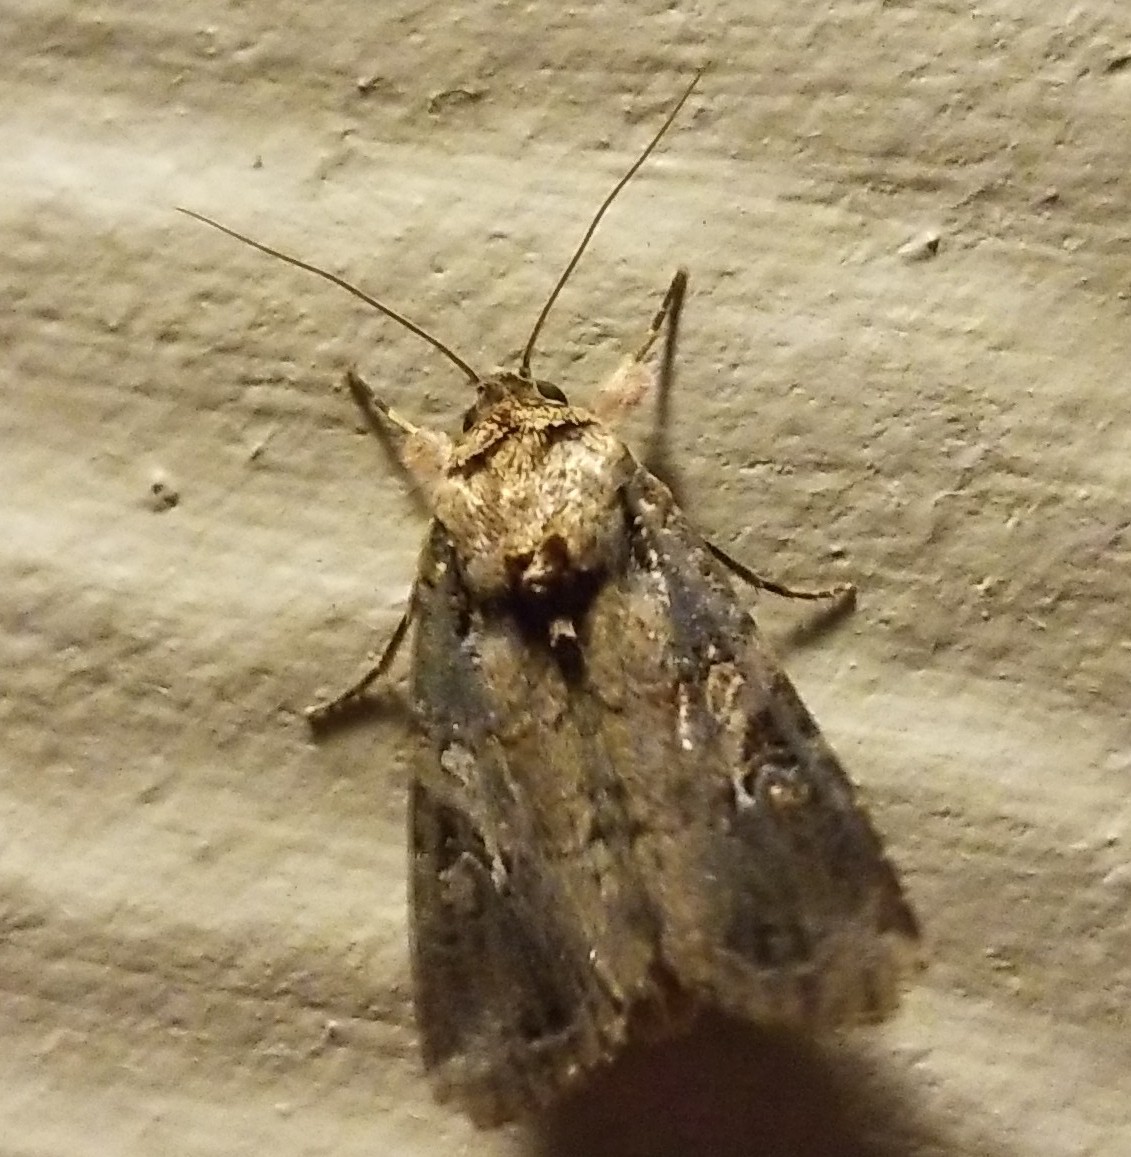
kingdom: Animalia
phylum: Arthropoda
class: Insecta
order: Lepidoptera
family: Noctuidae
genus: Spodoptera
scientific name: Spodoptera frugiperda
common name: Fall armyworm
